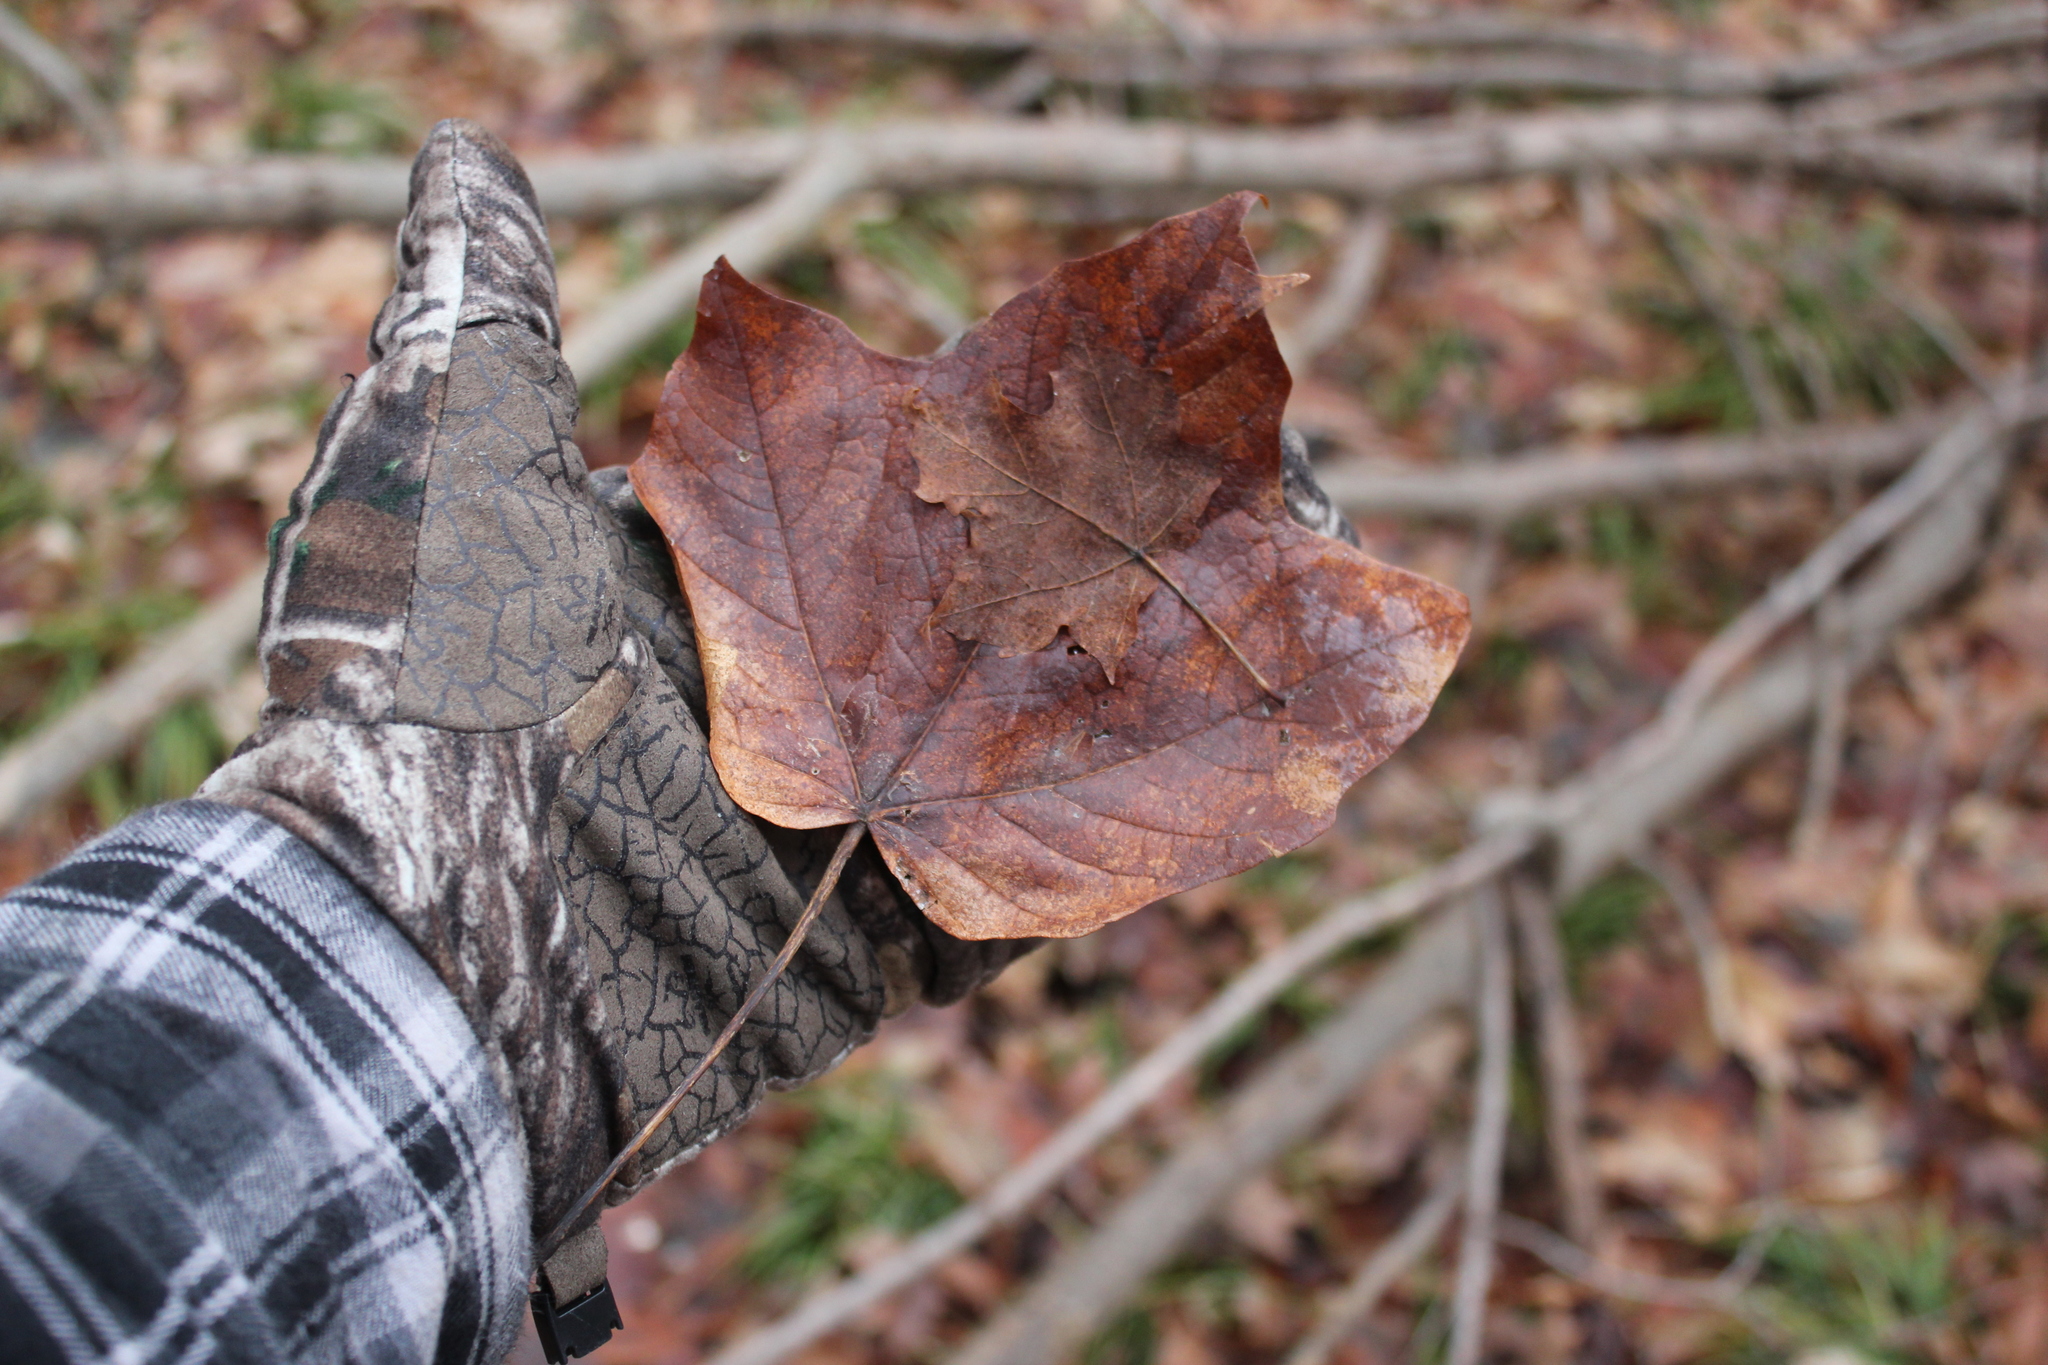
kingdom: Plantae
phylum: Tracheophyta
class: Magnoliopsida
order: Sapindales
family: Sapindaceae
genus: Acer
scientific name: Acer nigrum
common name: Black maple
